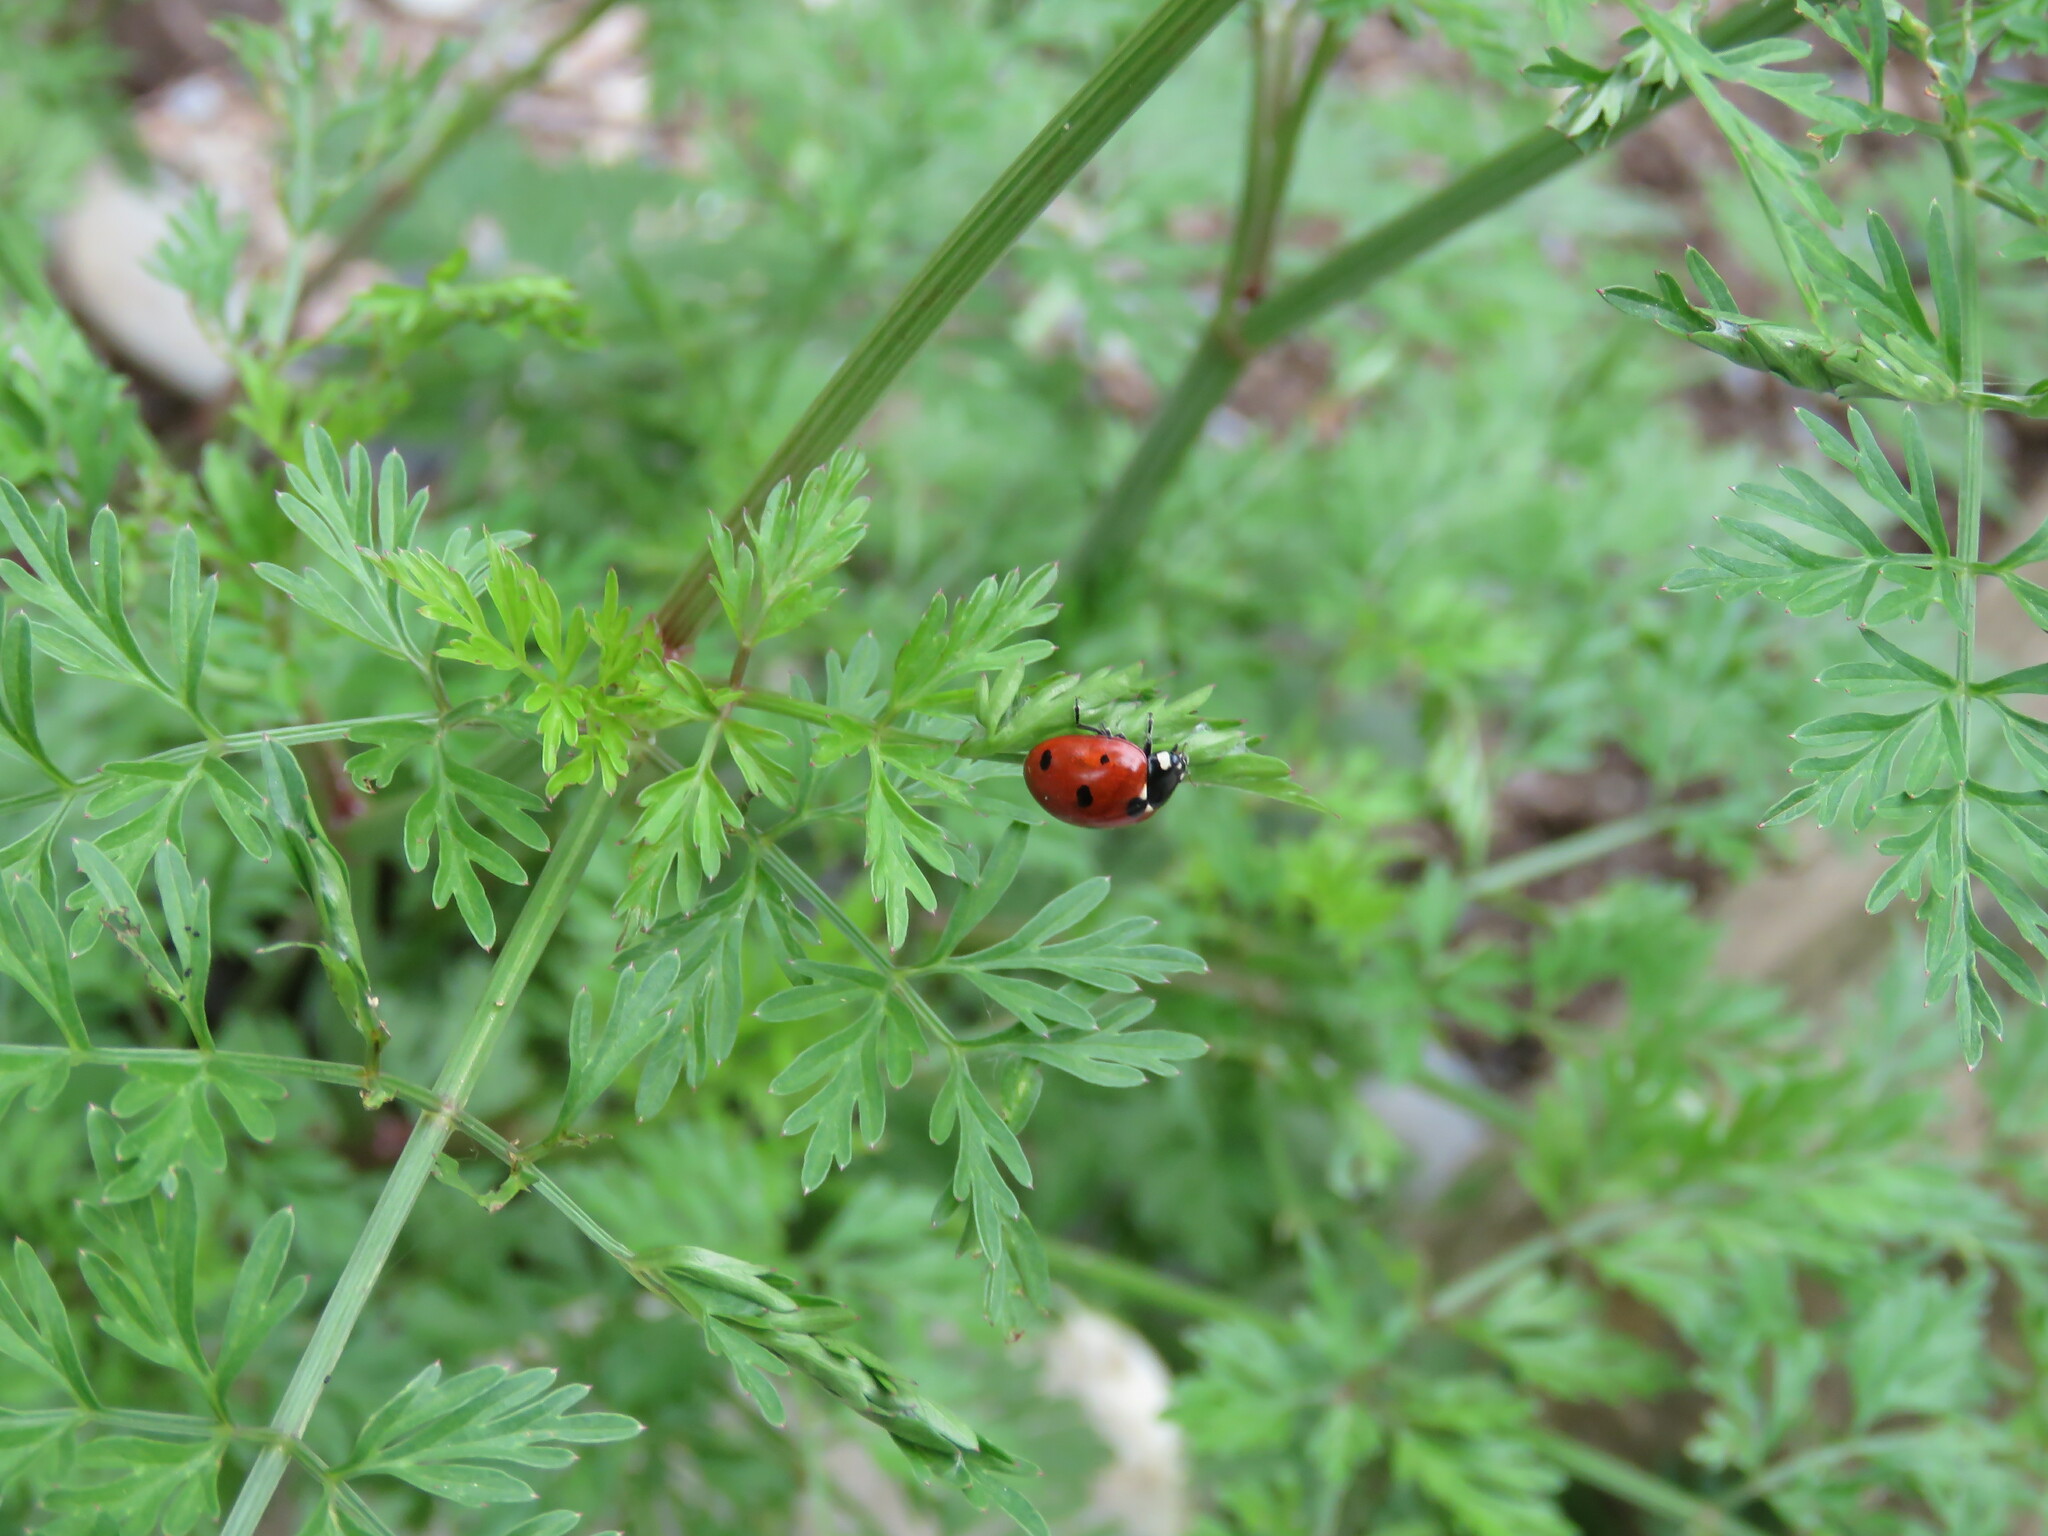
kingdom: Animalia
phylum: Arthropoda
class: Insecta
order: Coleoptera
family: Coccinellidae
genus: Coccinella
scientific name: Coccinella septempunctata
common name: Sevenspotted lady beetle
